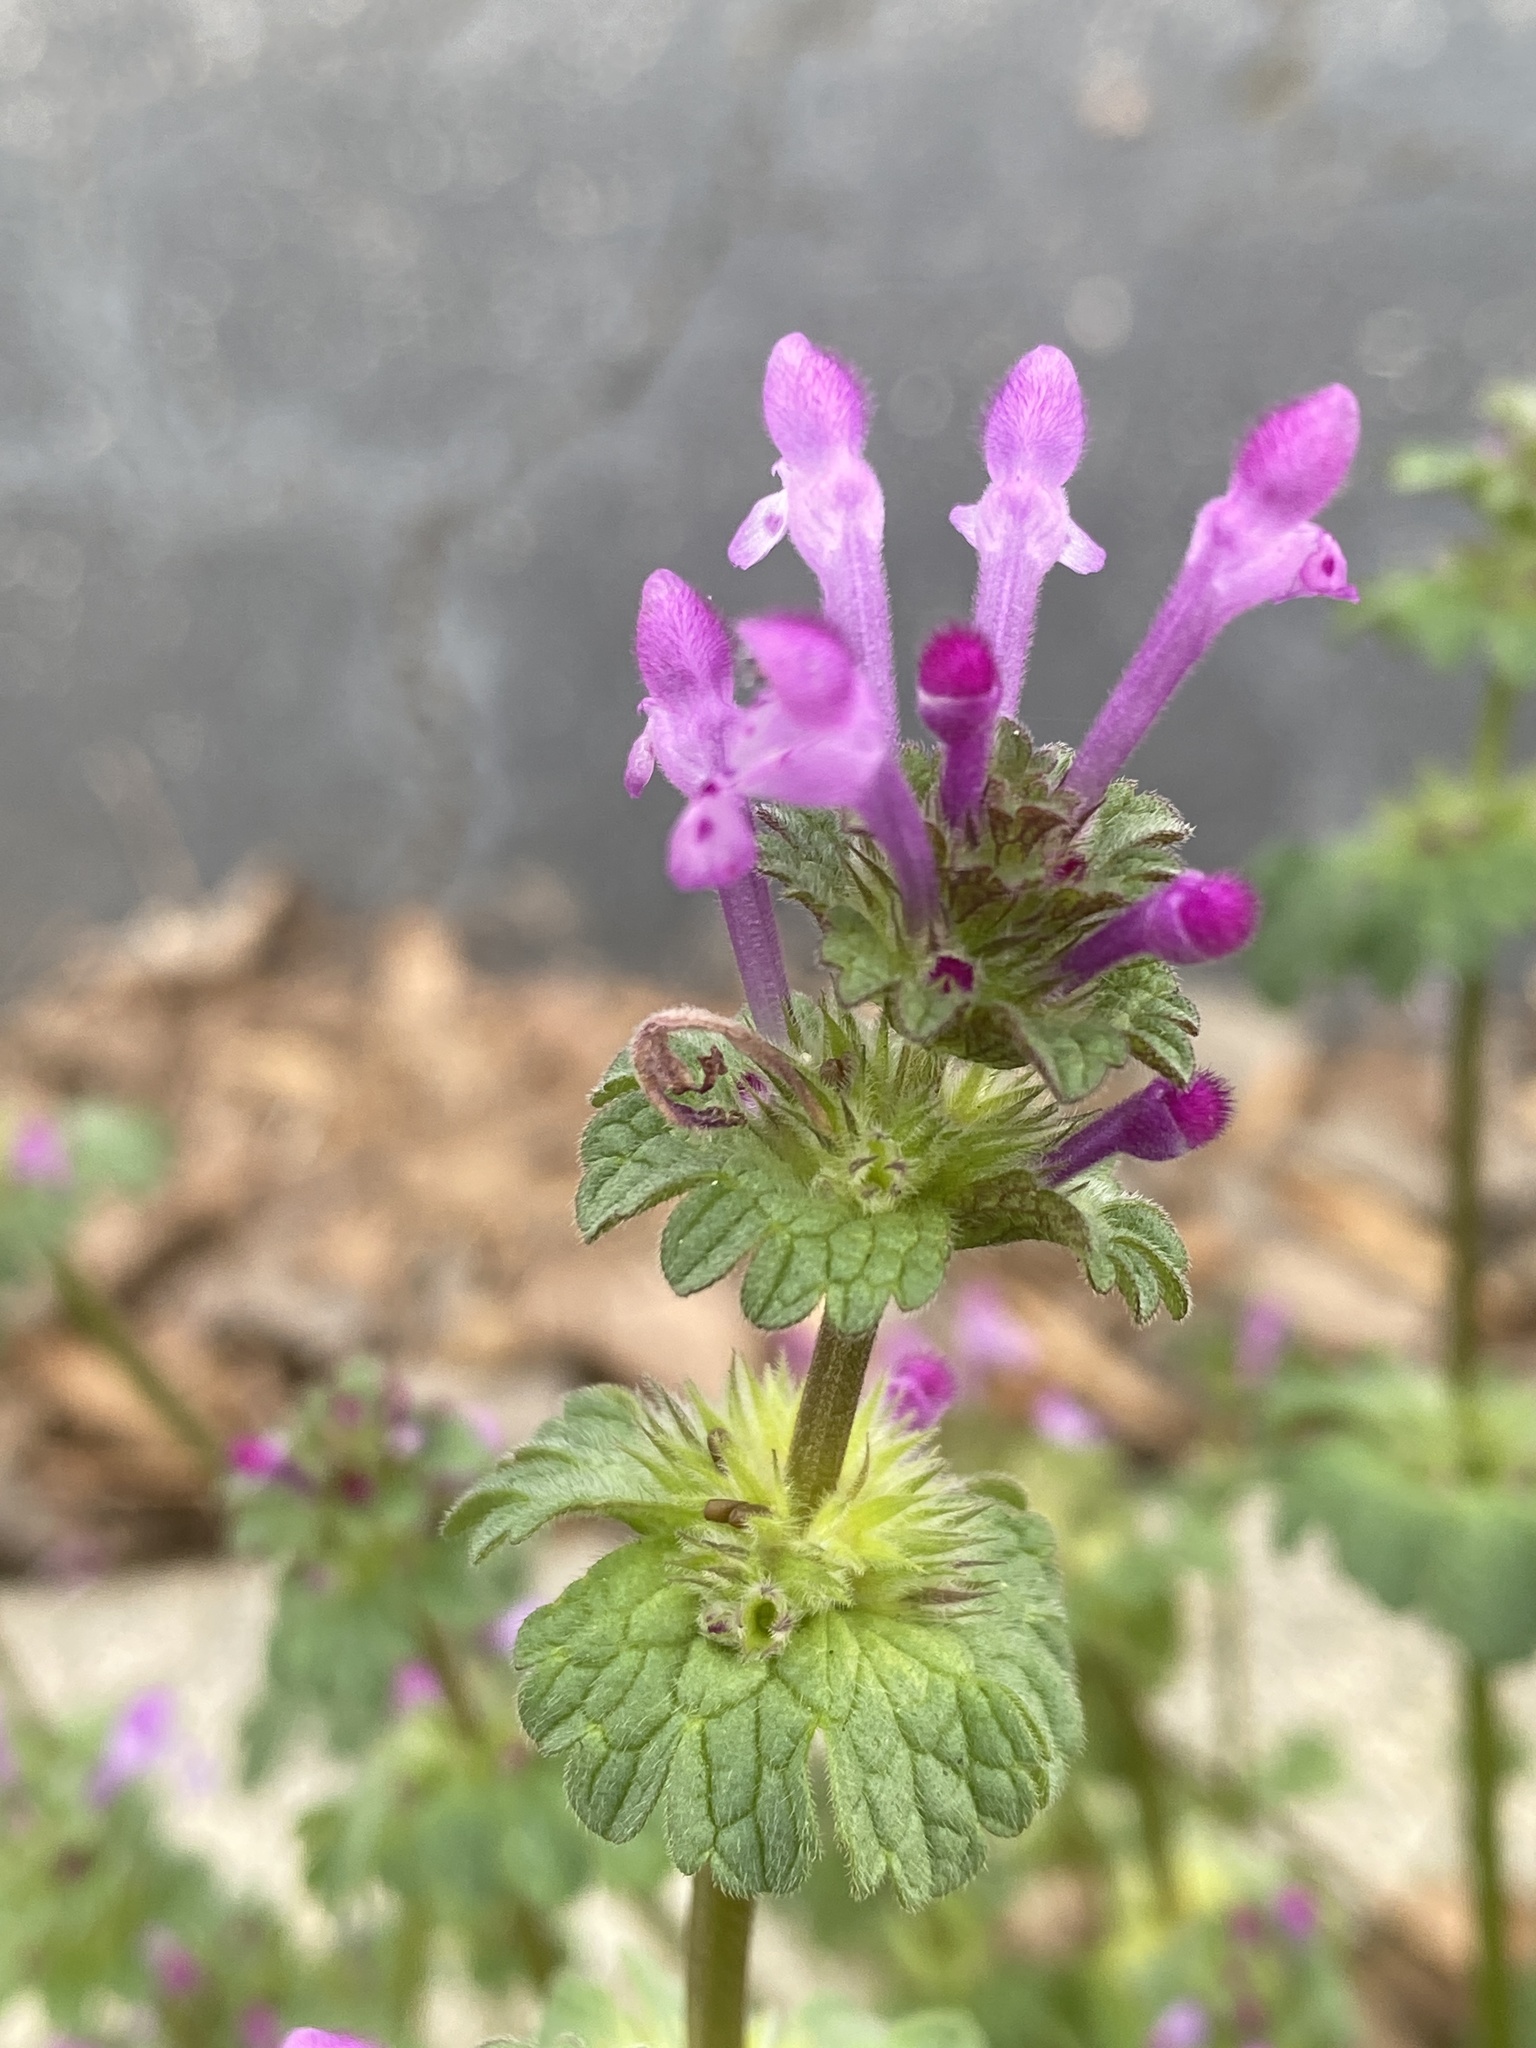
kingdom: Plantae
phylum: Tracheophyta
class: Magnoliopsida
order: Lamiales
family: Lamiaceae
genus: Lamium
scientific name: Lamium amplexicaule
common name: Henbit dead-nettle
